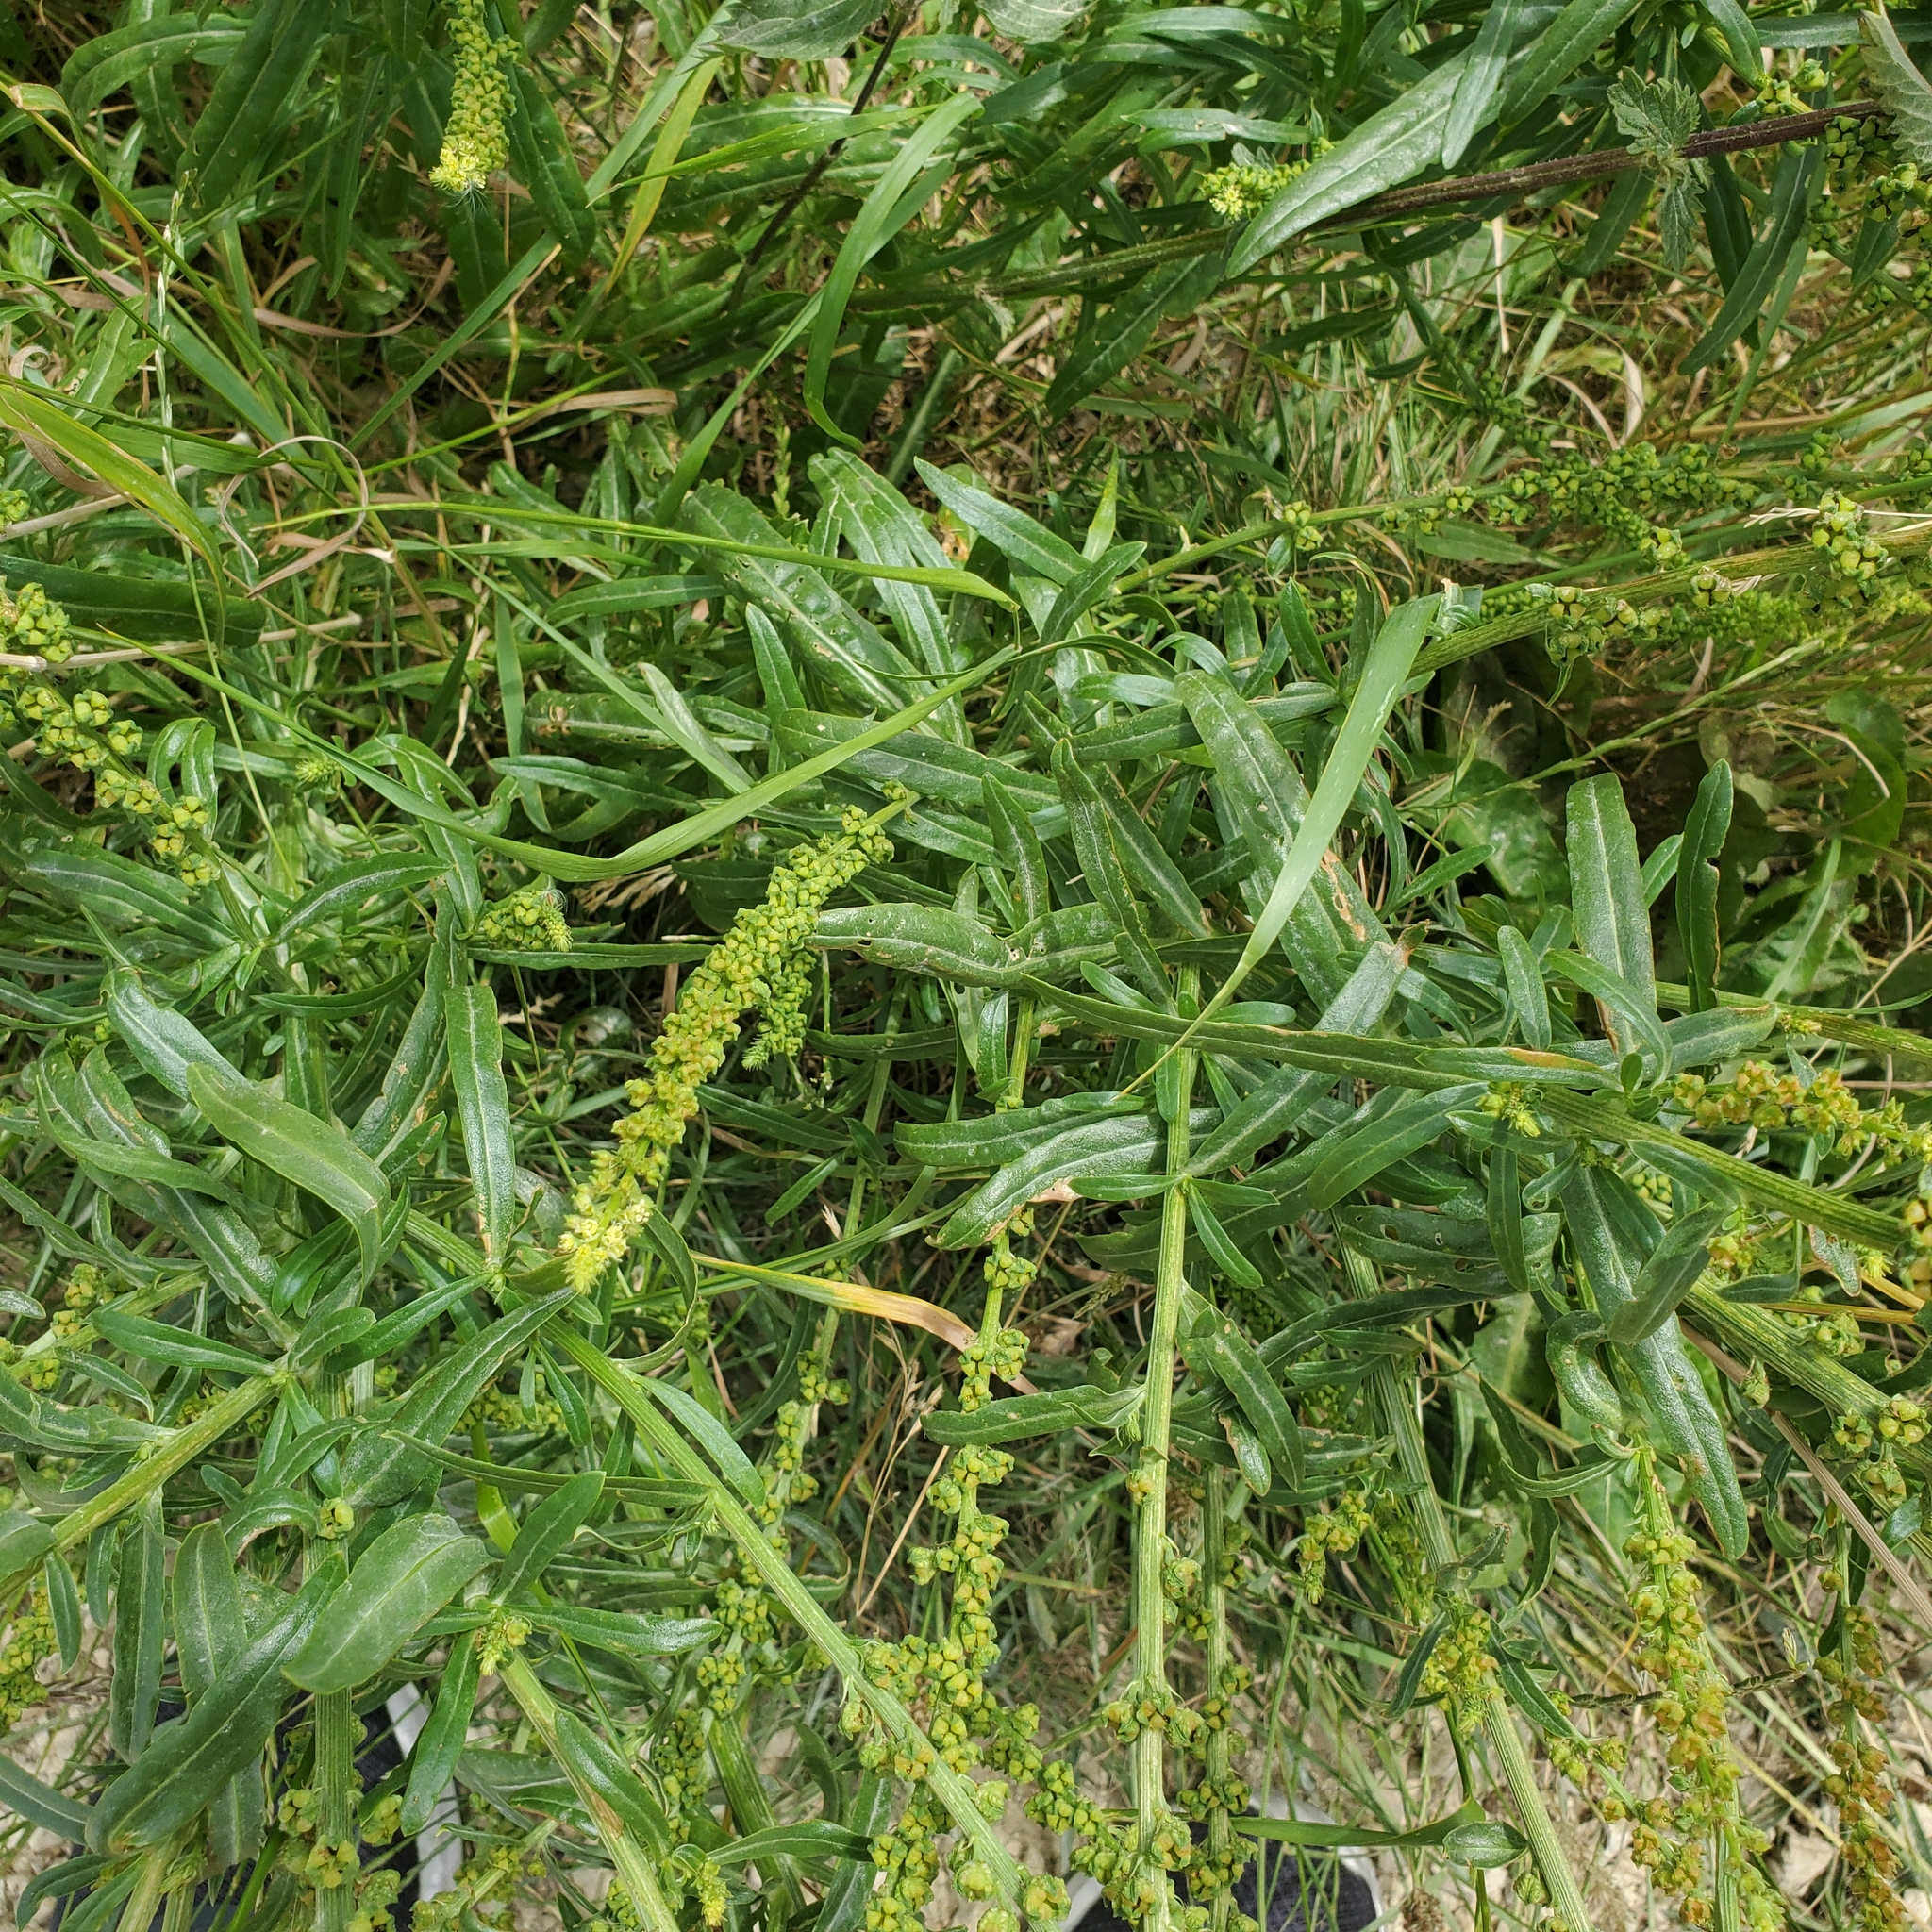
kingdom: Plantae
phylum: Tracheophyta
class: Magnoliopsida
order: Brassicales
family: Resedaceae
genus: Reseda
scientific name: Reseda luteola
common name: Weld
